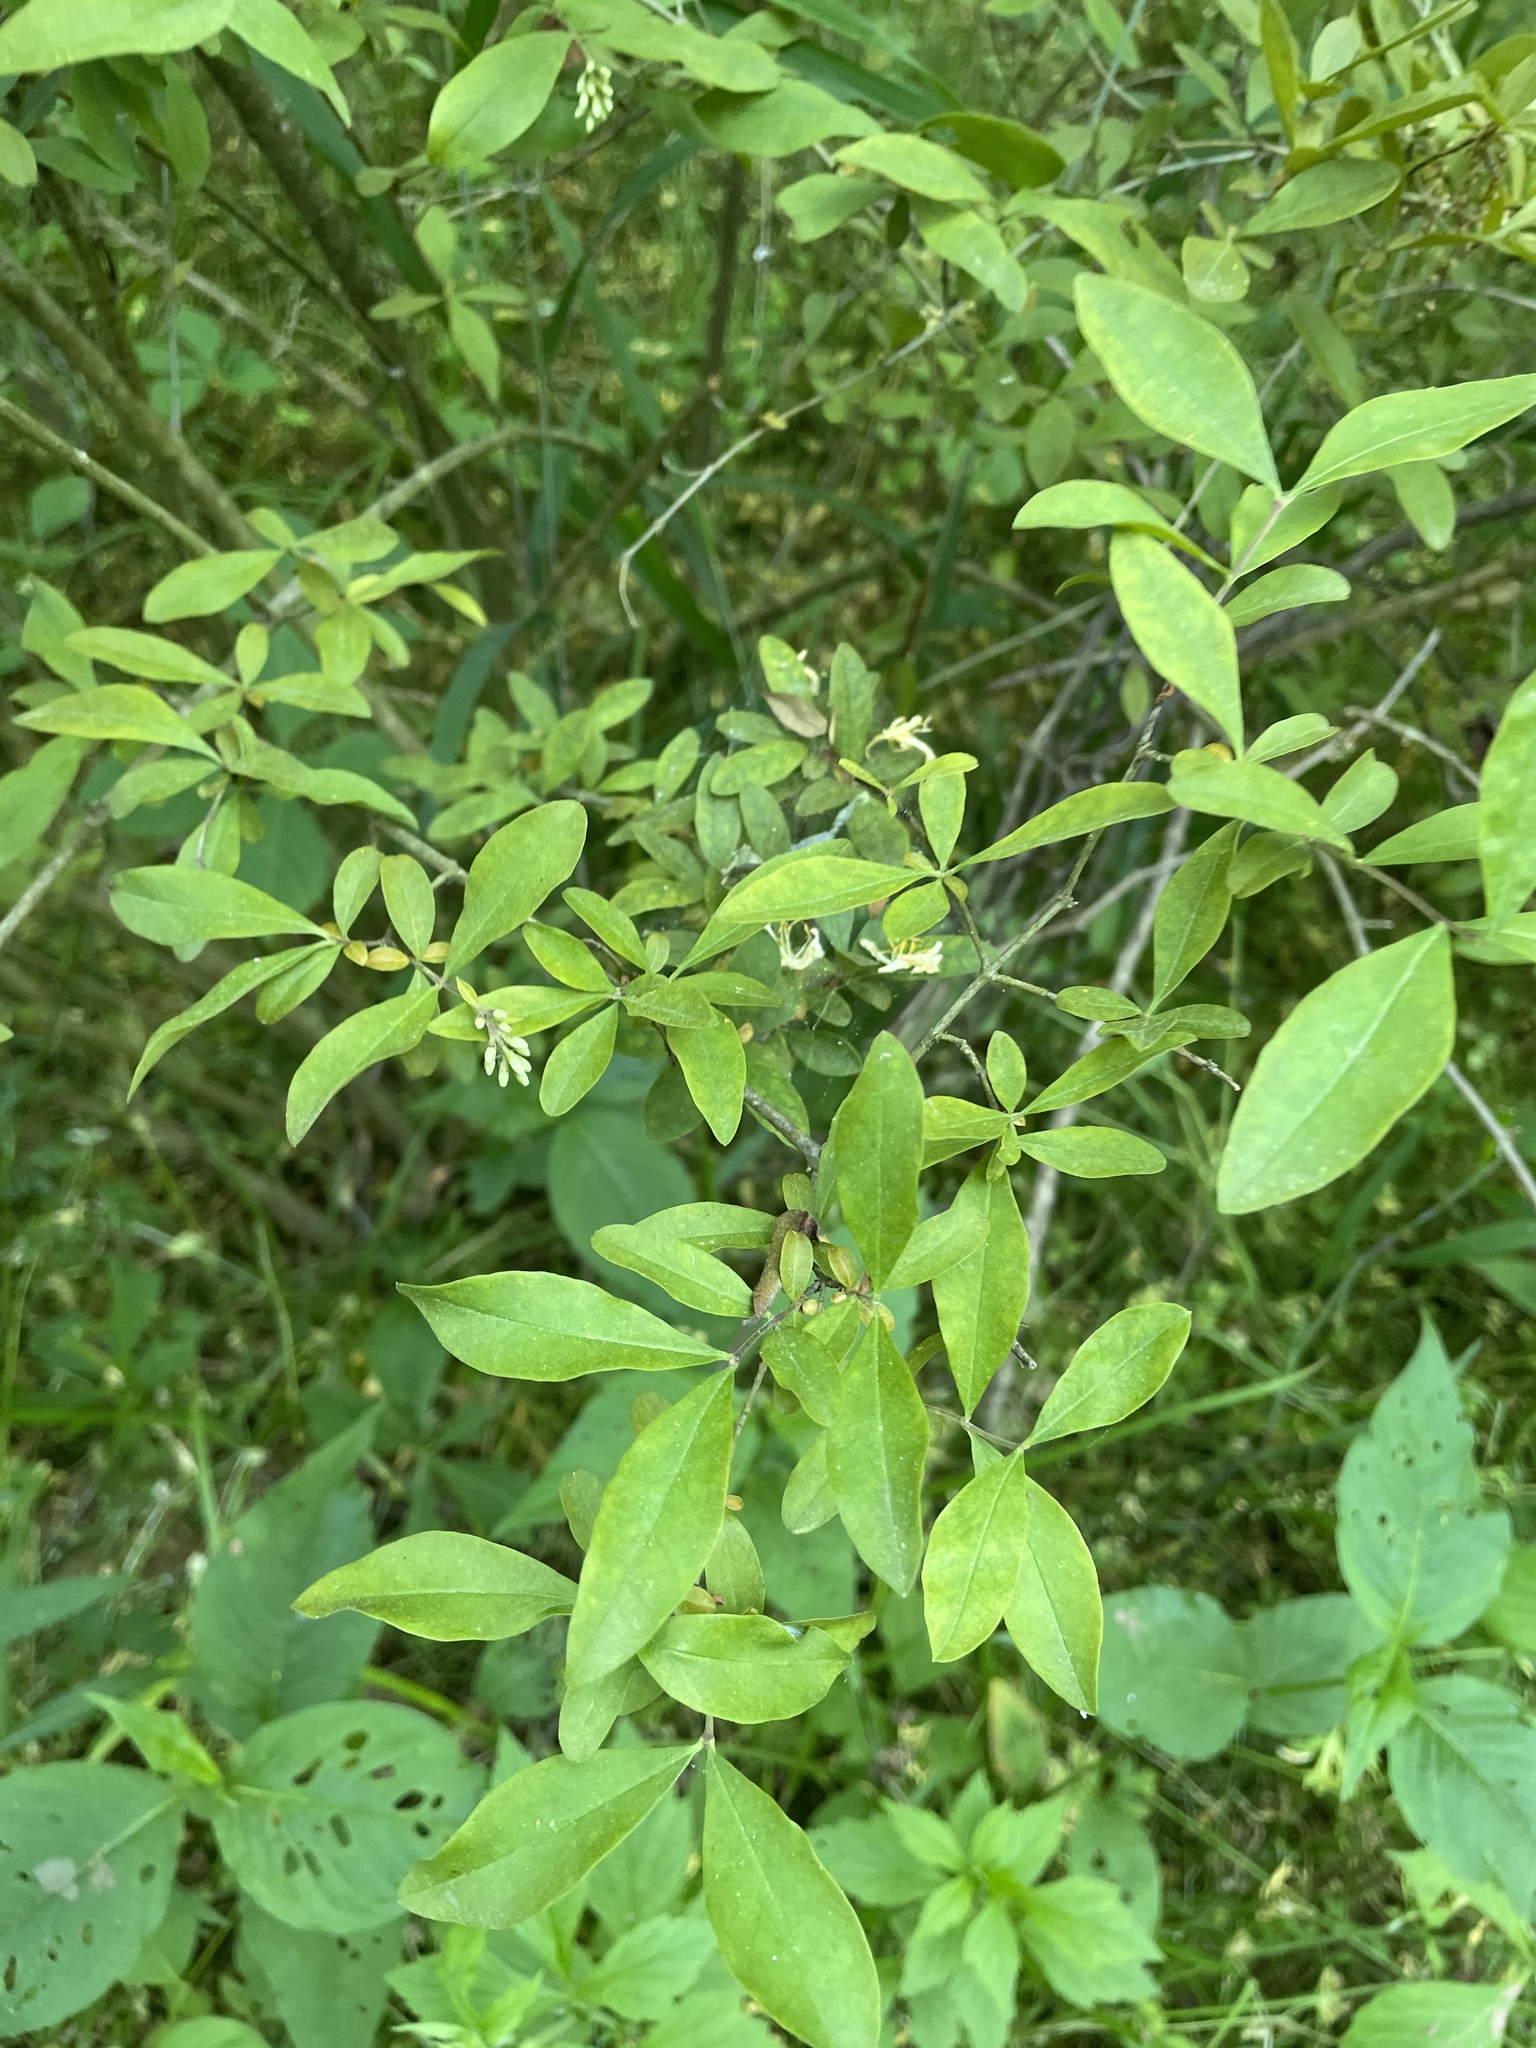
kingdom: Plantae
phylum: Tracheophyta
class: Magnoliopsida
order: Lamiales
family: Oleaceae
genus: Ligustrum
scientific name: Ligustrum obtusifolium
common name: Border privet
